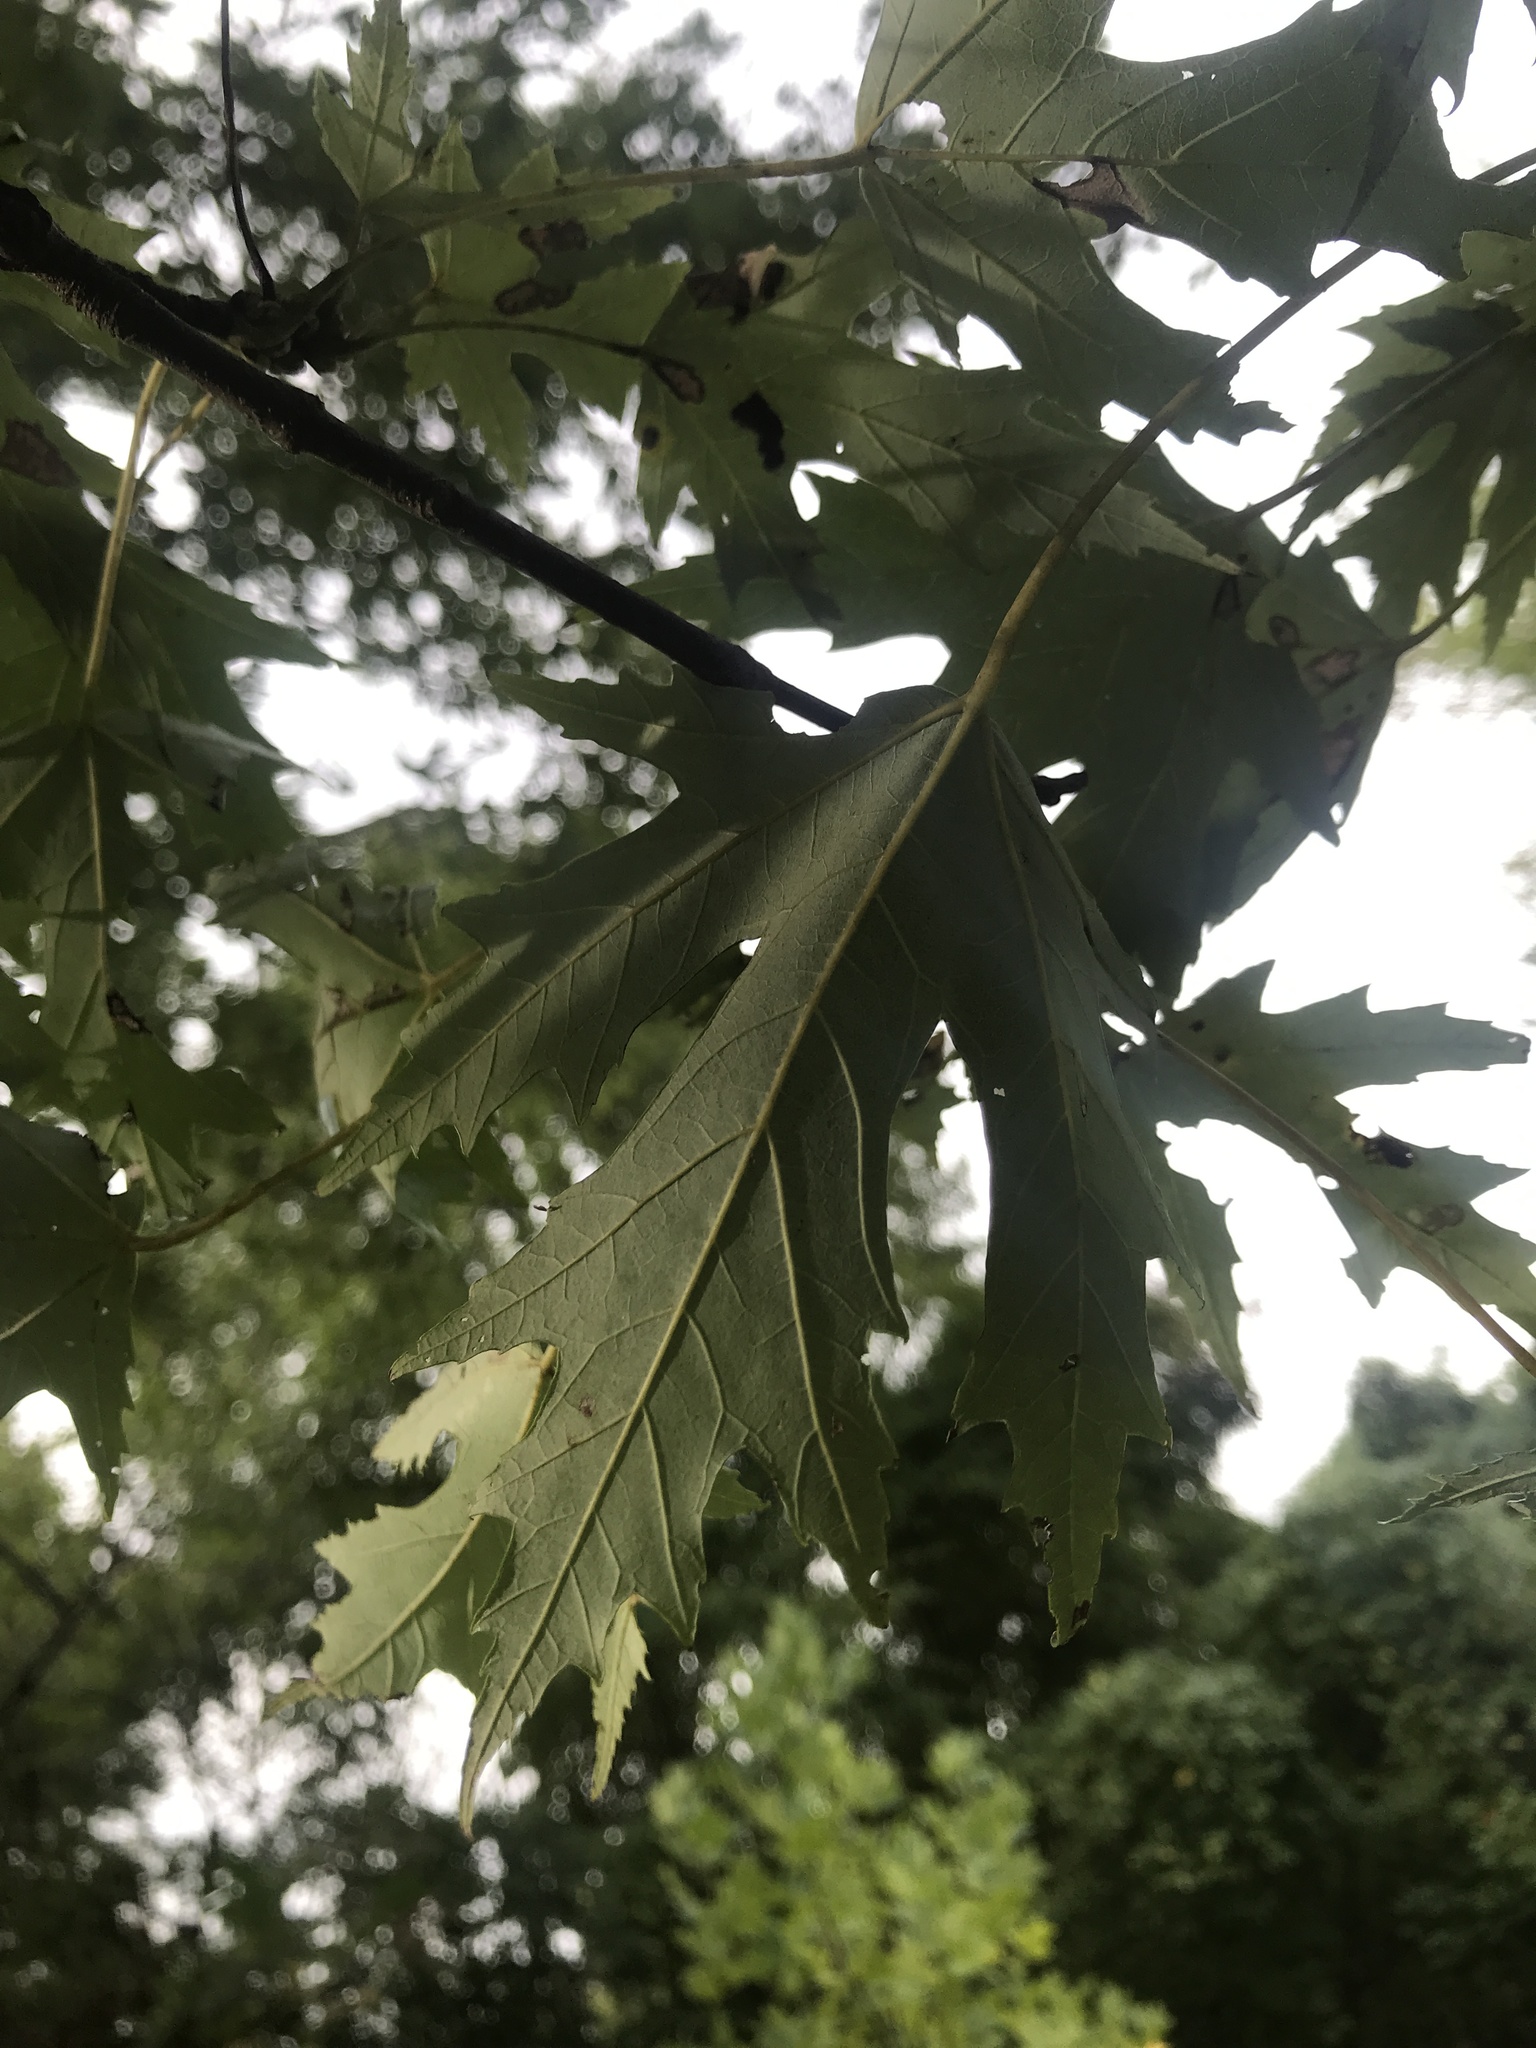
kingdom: Plantae
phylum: Tracheophyta
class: Magnoliopsida
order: Sapindales
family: Sapindaceae
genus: Acer
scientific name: Acer saccharinum
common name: Silver maple
